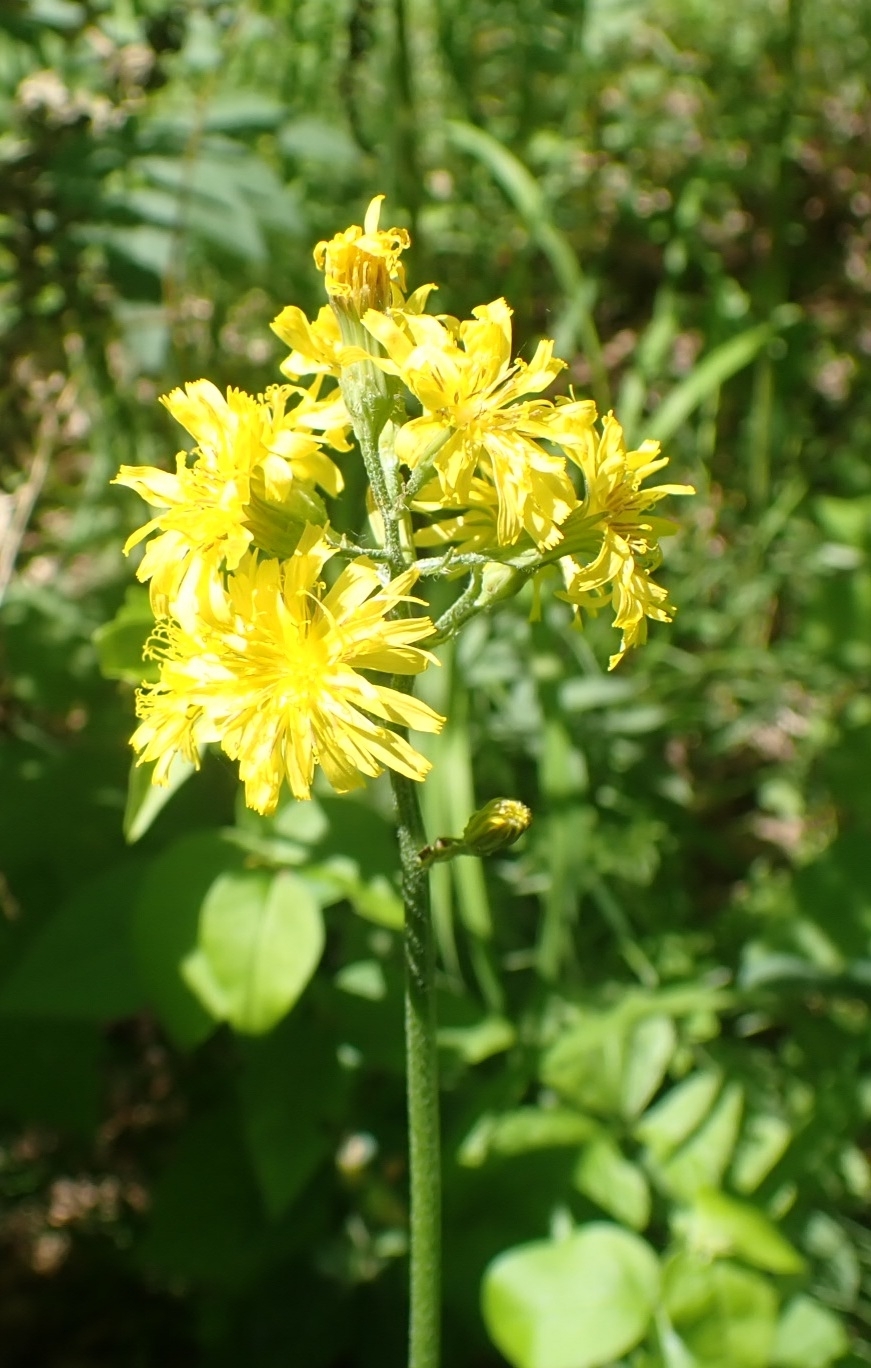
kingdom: Plantae
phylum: Tracheophyta
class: Magnoliopsida
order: Asterales
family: Asteraceae
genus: Crepis
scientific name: Crepis praemorsa
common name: Leafless hawk's-beard
